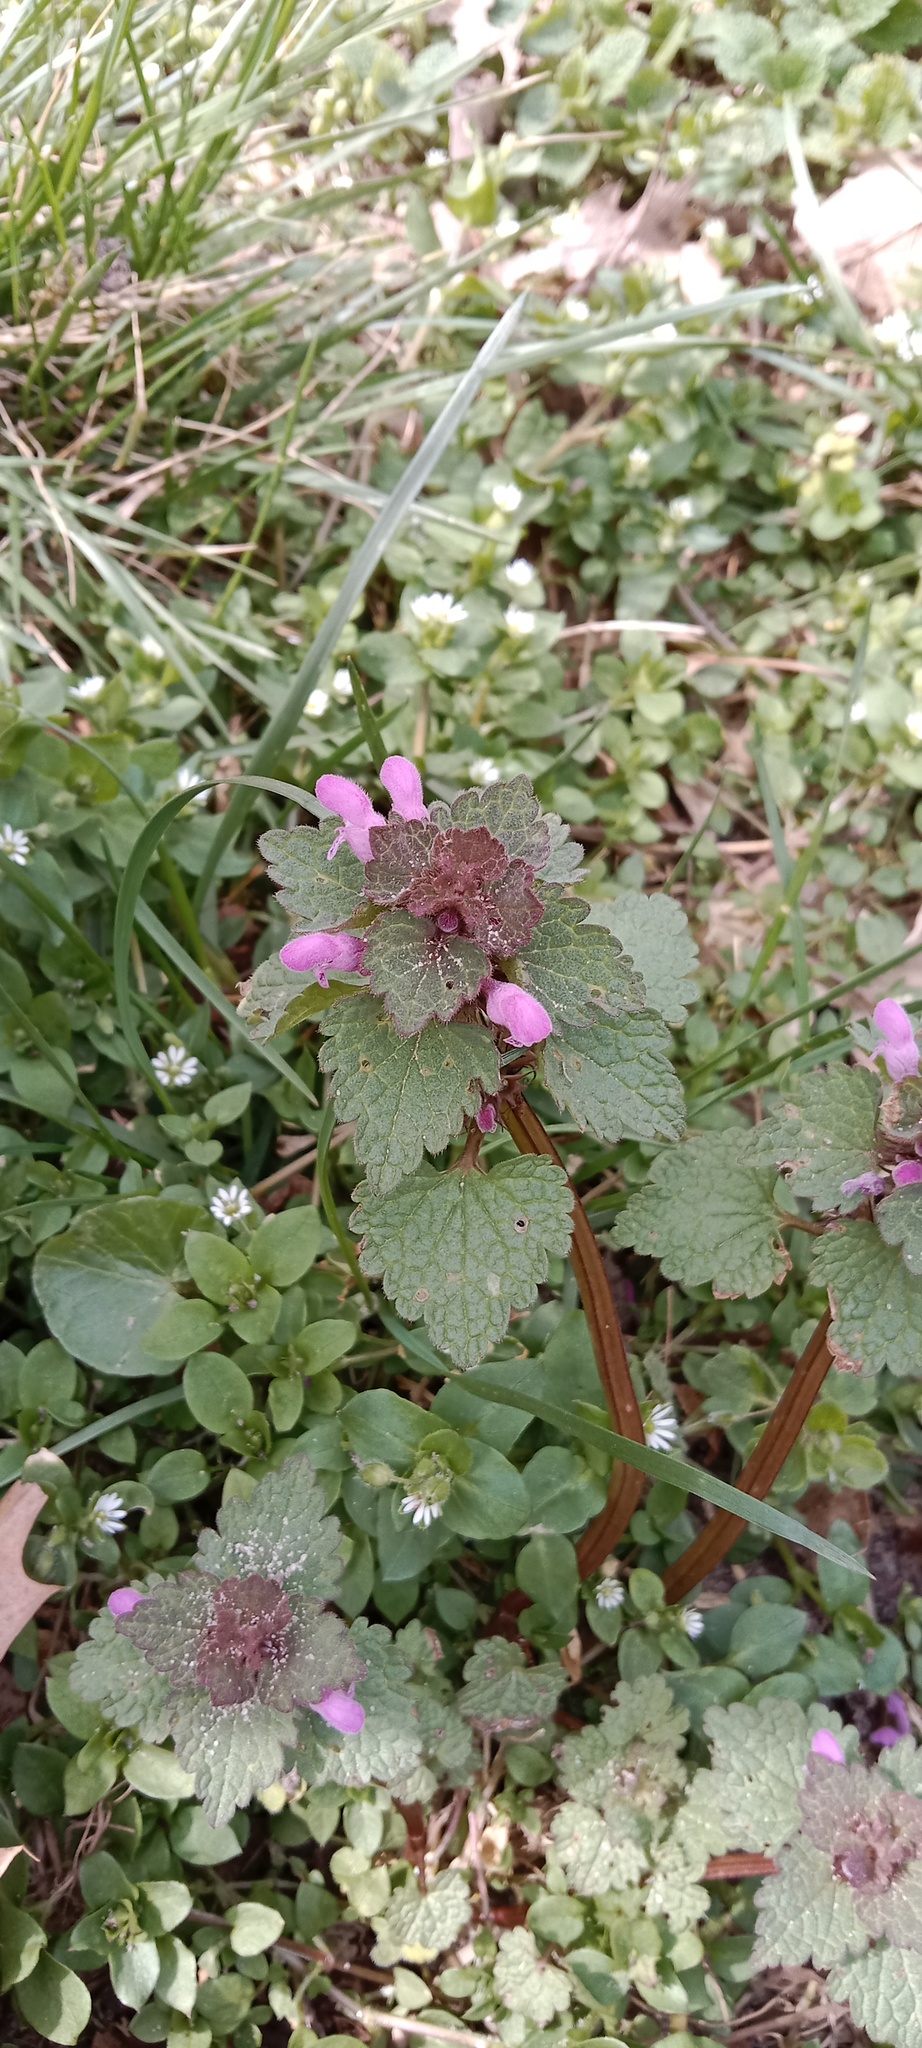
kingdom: Plantae
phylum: Tracheophyta
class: Magnoliopsida
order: Lamiales
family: Lamiaceae
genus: Lamium
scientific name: Lamium purpureum
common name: Red dead-nettle
